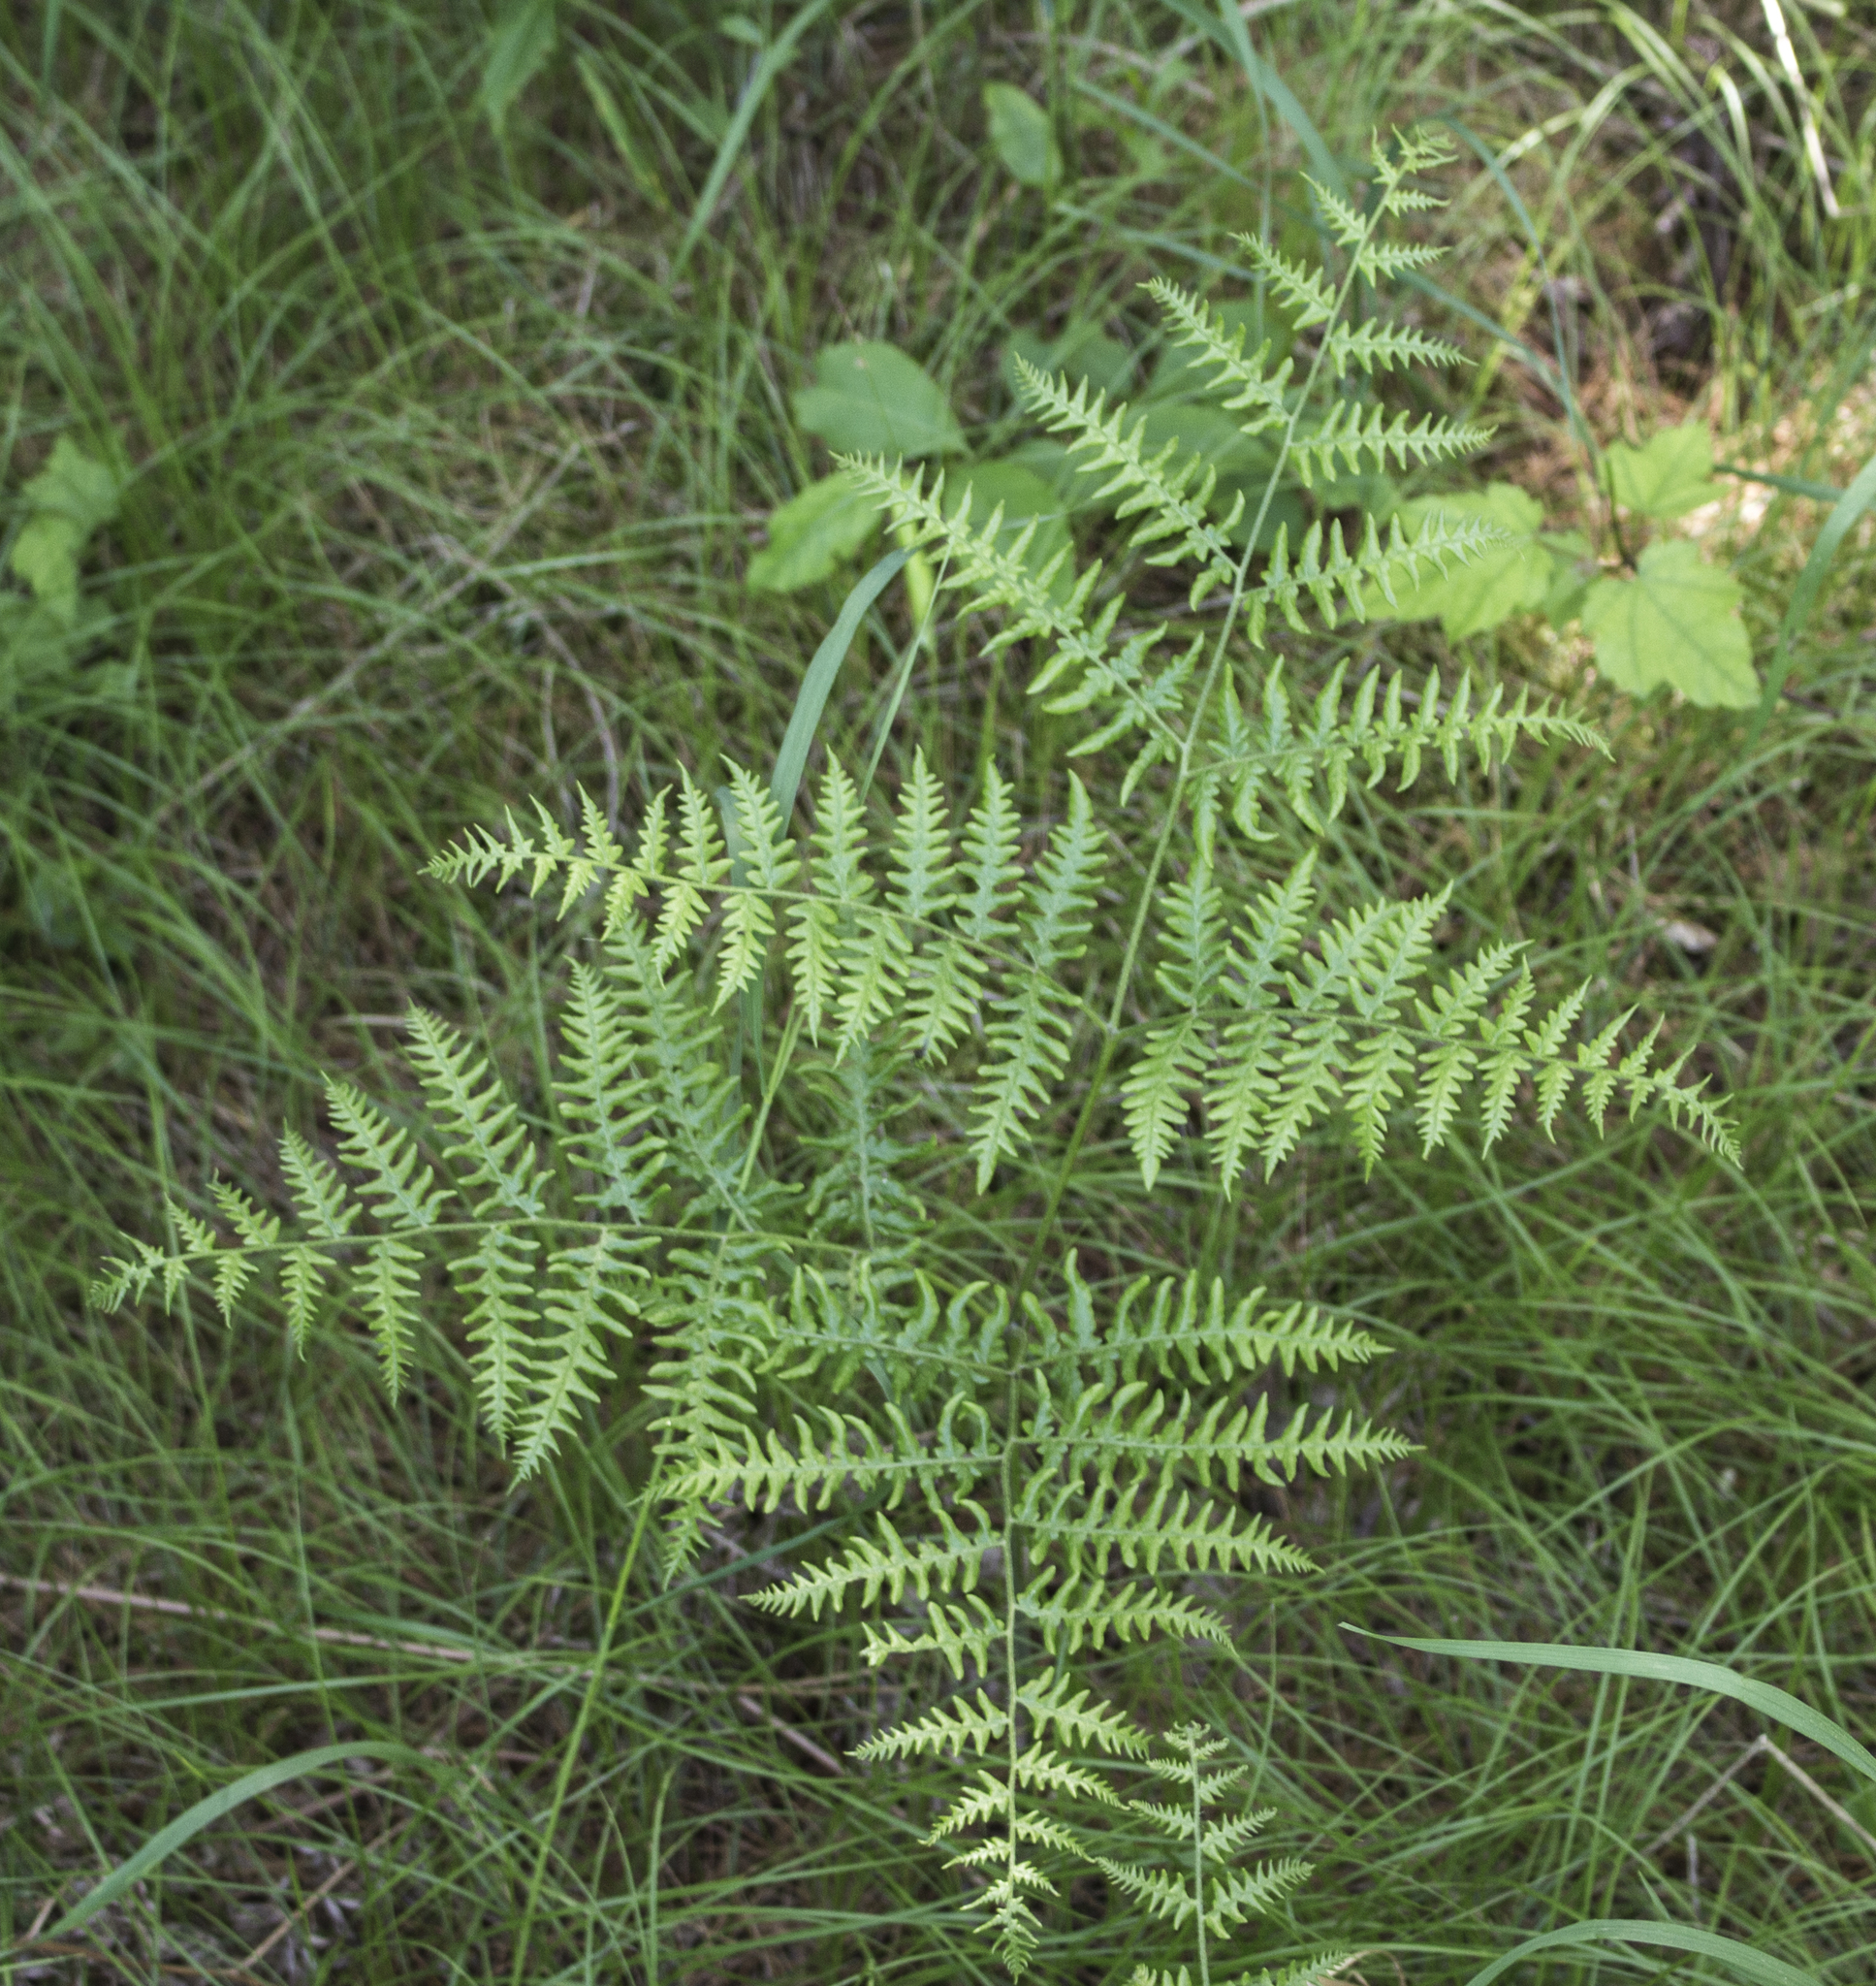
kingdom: Plantae
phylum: Tracheophyta
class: Polypodiopsida
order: Polypodiales
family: Dennstaedtiaceae
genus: Pteridium
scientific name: Pteridium aquilinum
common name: Bracken
